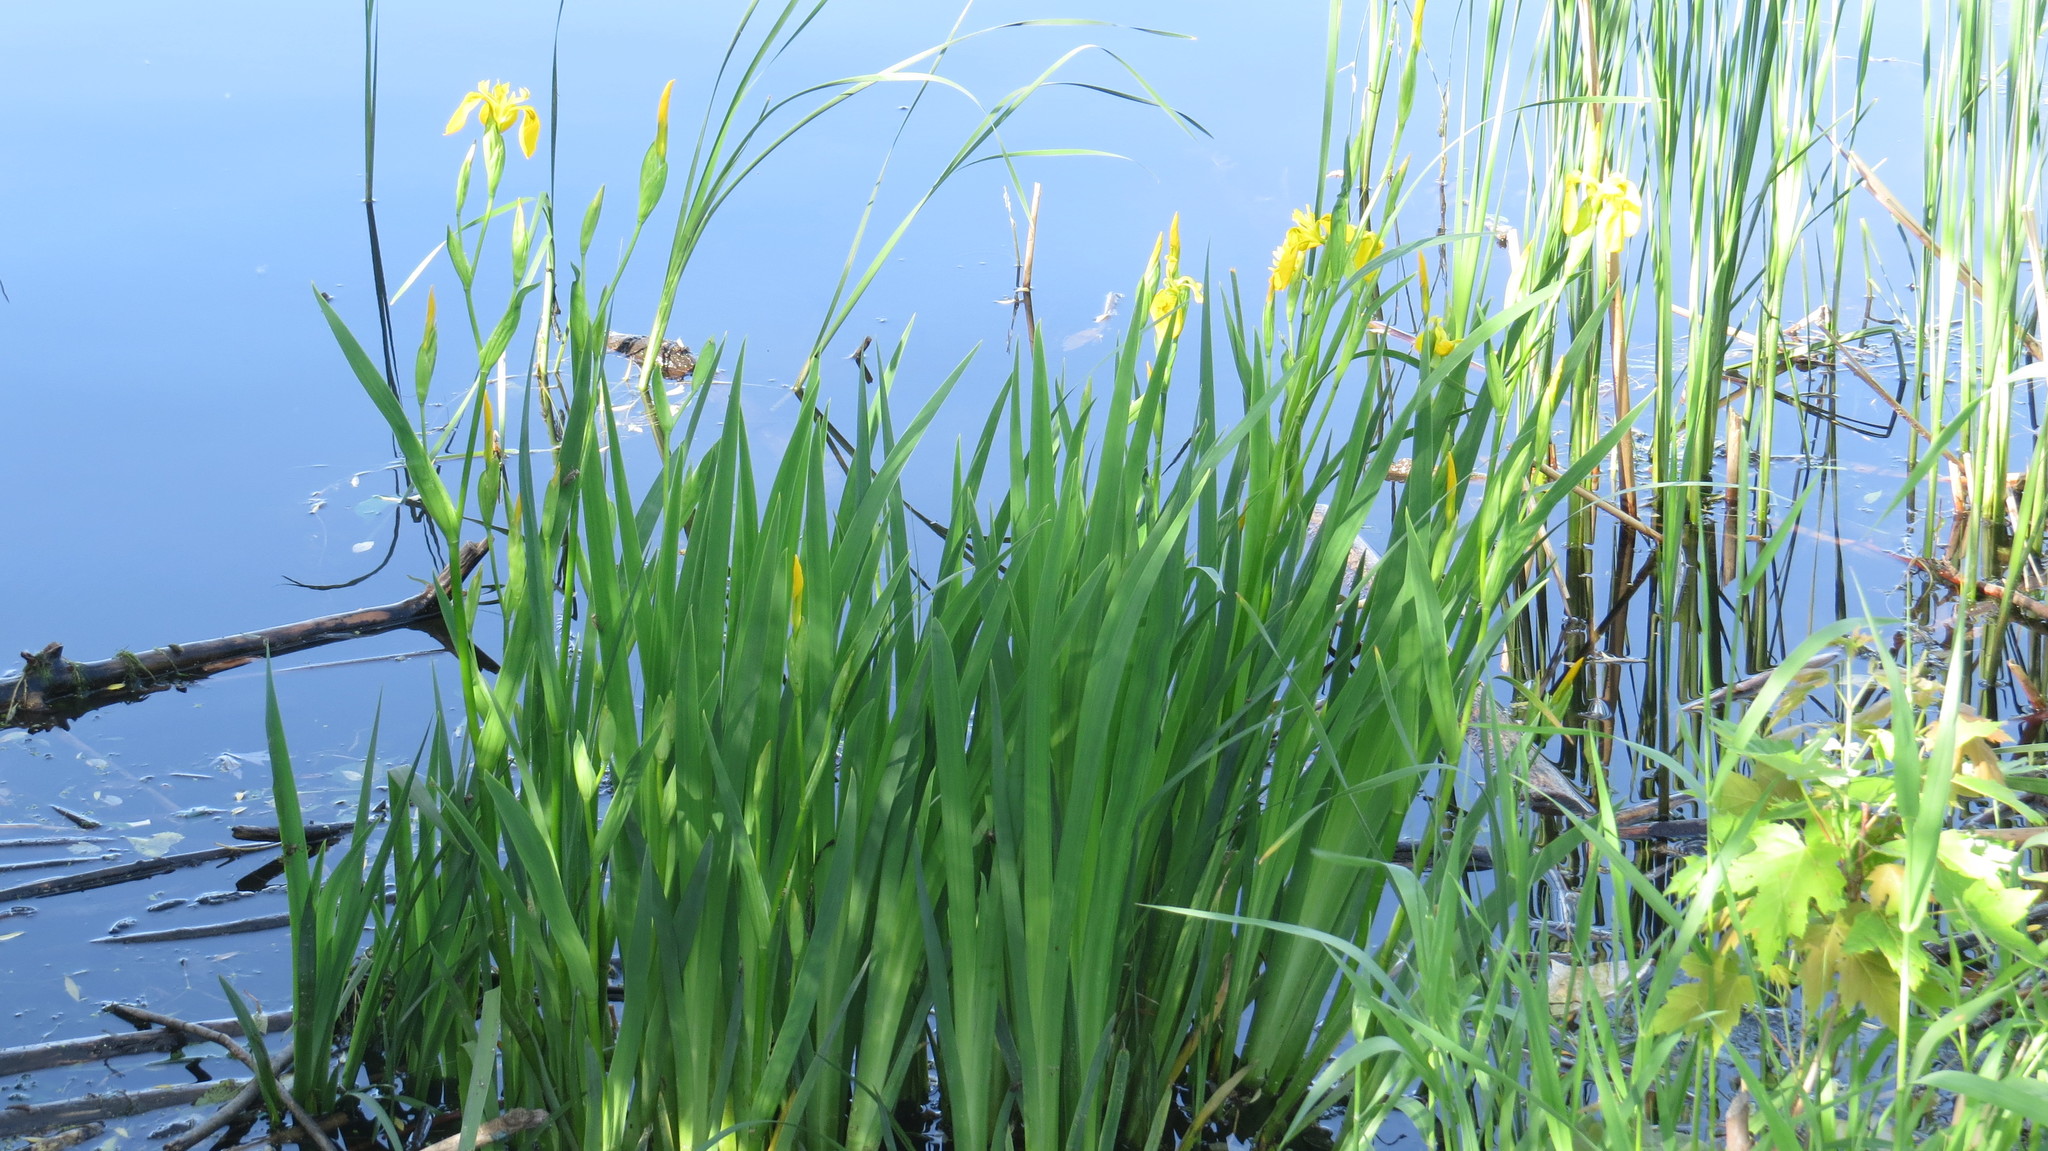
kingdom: Plantae
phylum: Tracheophyta
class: Liliopsida
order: Asparagales
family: Iridaceae
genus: Iris
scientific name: Iris pseudacorus
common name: Yellow flag
